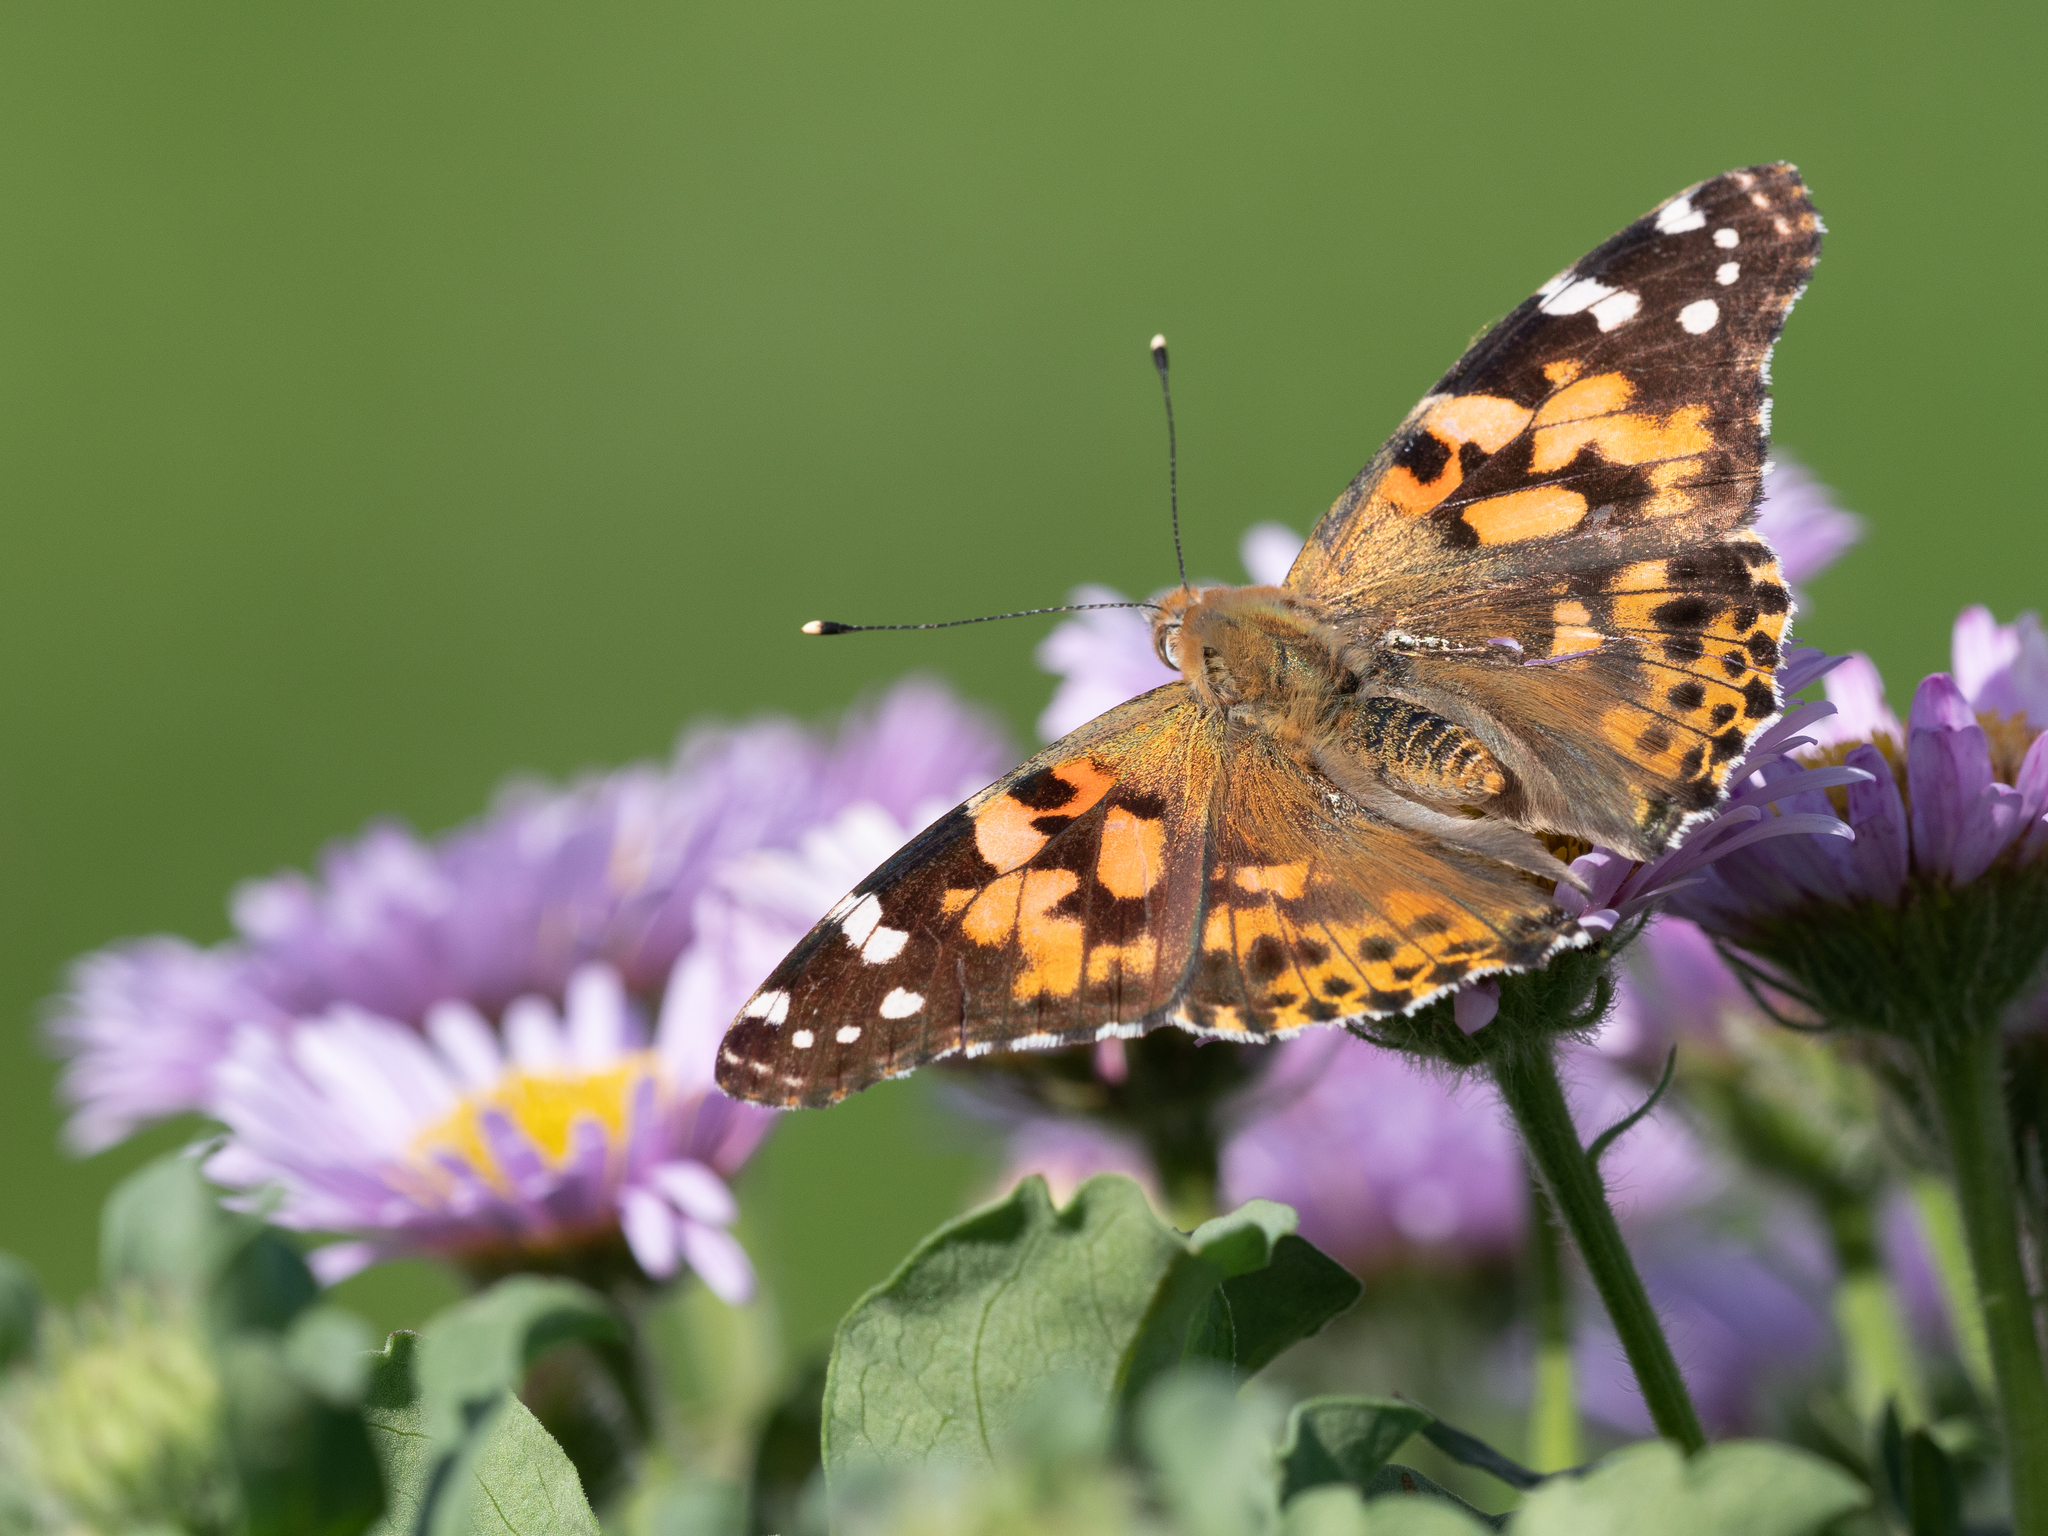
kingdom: Animalia
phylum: Arthropoda
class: Insecta
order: Lepidoptera
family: Nymphalidae
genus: Vanessa
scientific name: Vanessa cardui
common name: Painted lady
